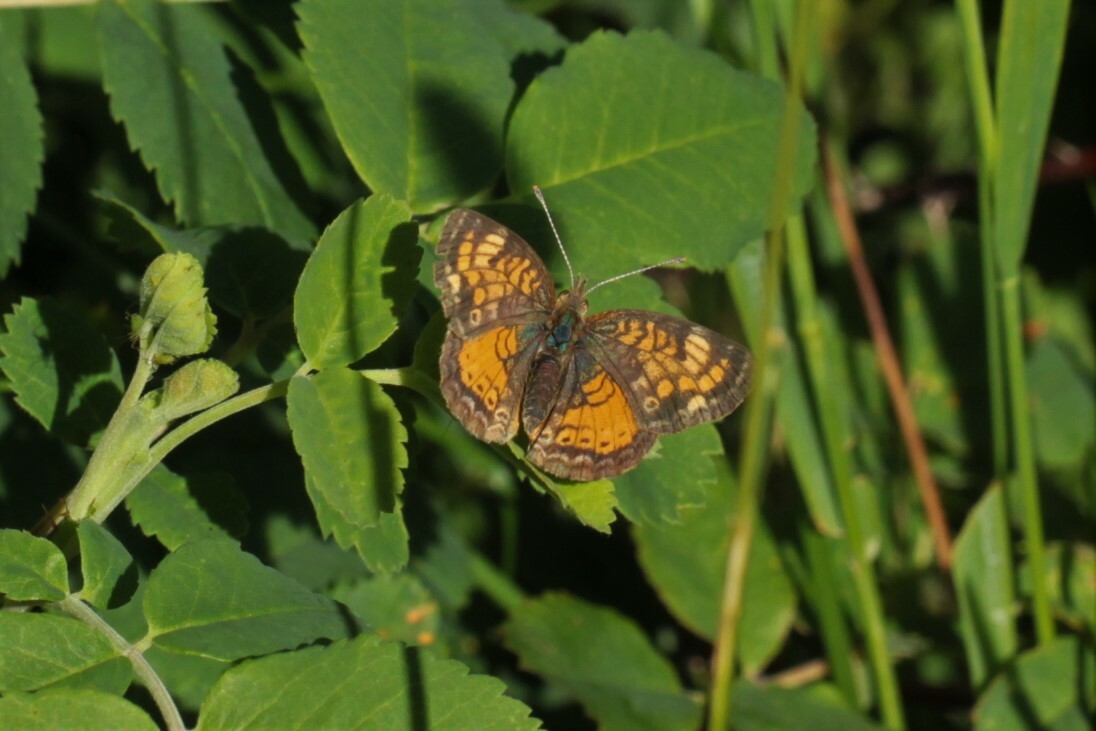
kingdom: Animalia
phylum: Arthropoda
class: Insecta
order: Lepidoptera
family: Nymphalidae
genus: Phyciodes
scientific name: Phyciodes tharos
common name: Pearl crescent
